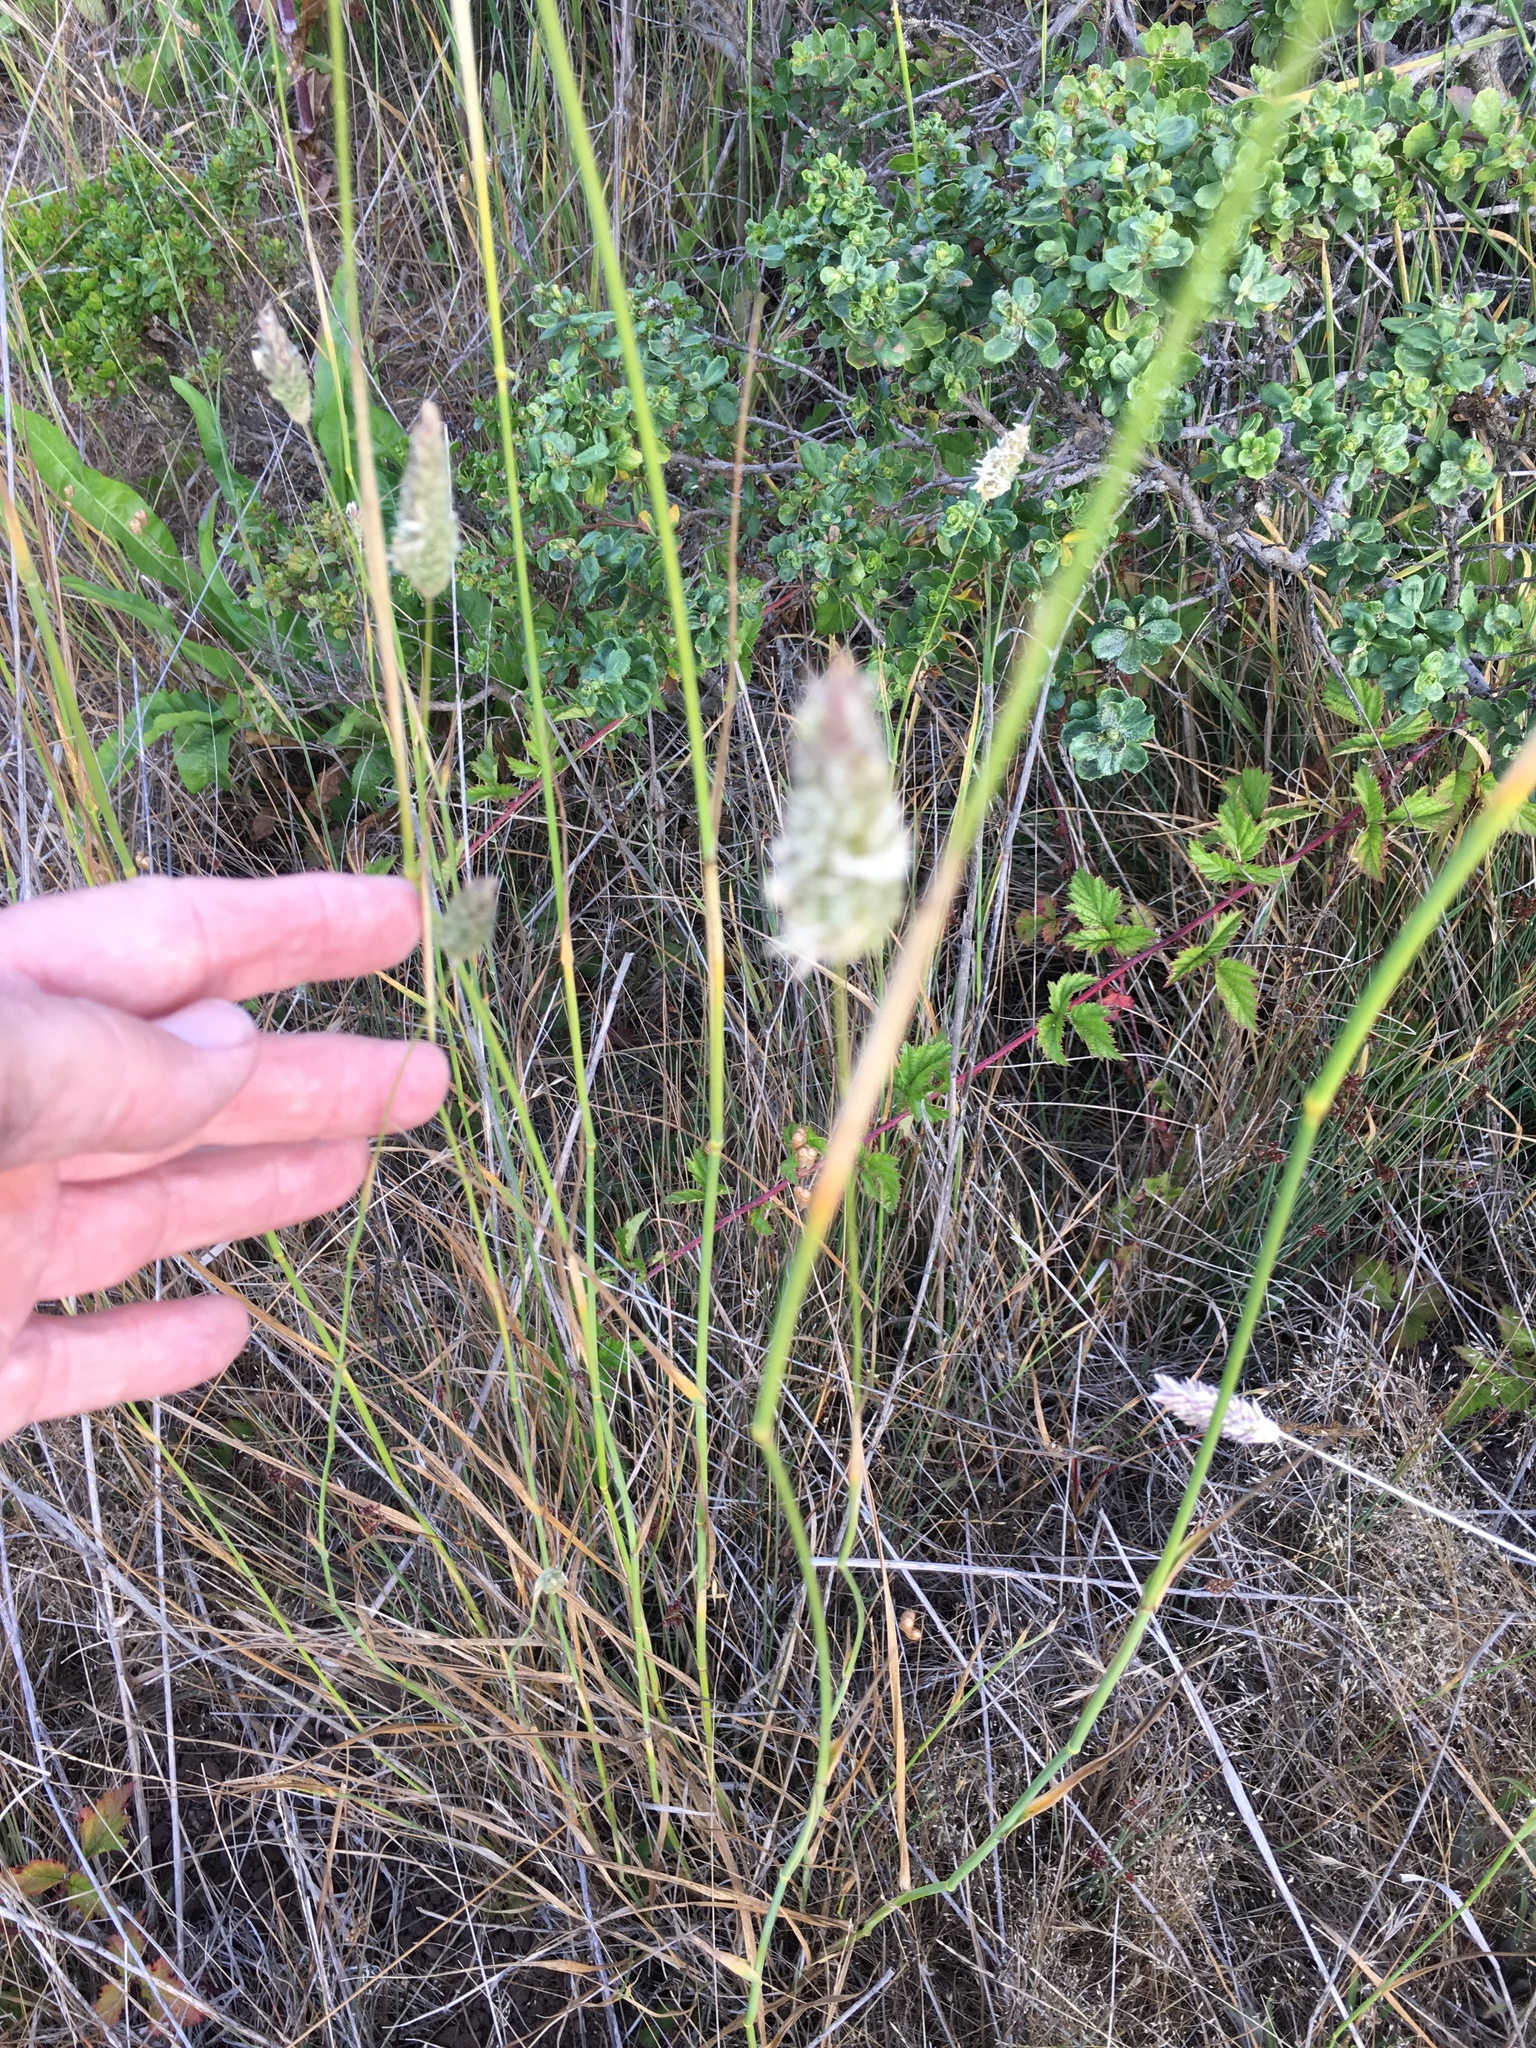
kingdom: Plantae
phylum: Tracheophyta
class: Liliopsida
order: Poales
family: Poaceae
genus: Phalaris
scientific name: Phalaris aquatica
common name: Bulbous canary-grass
